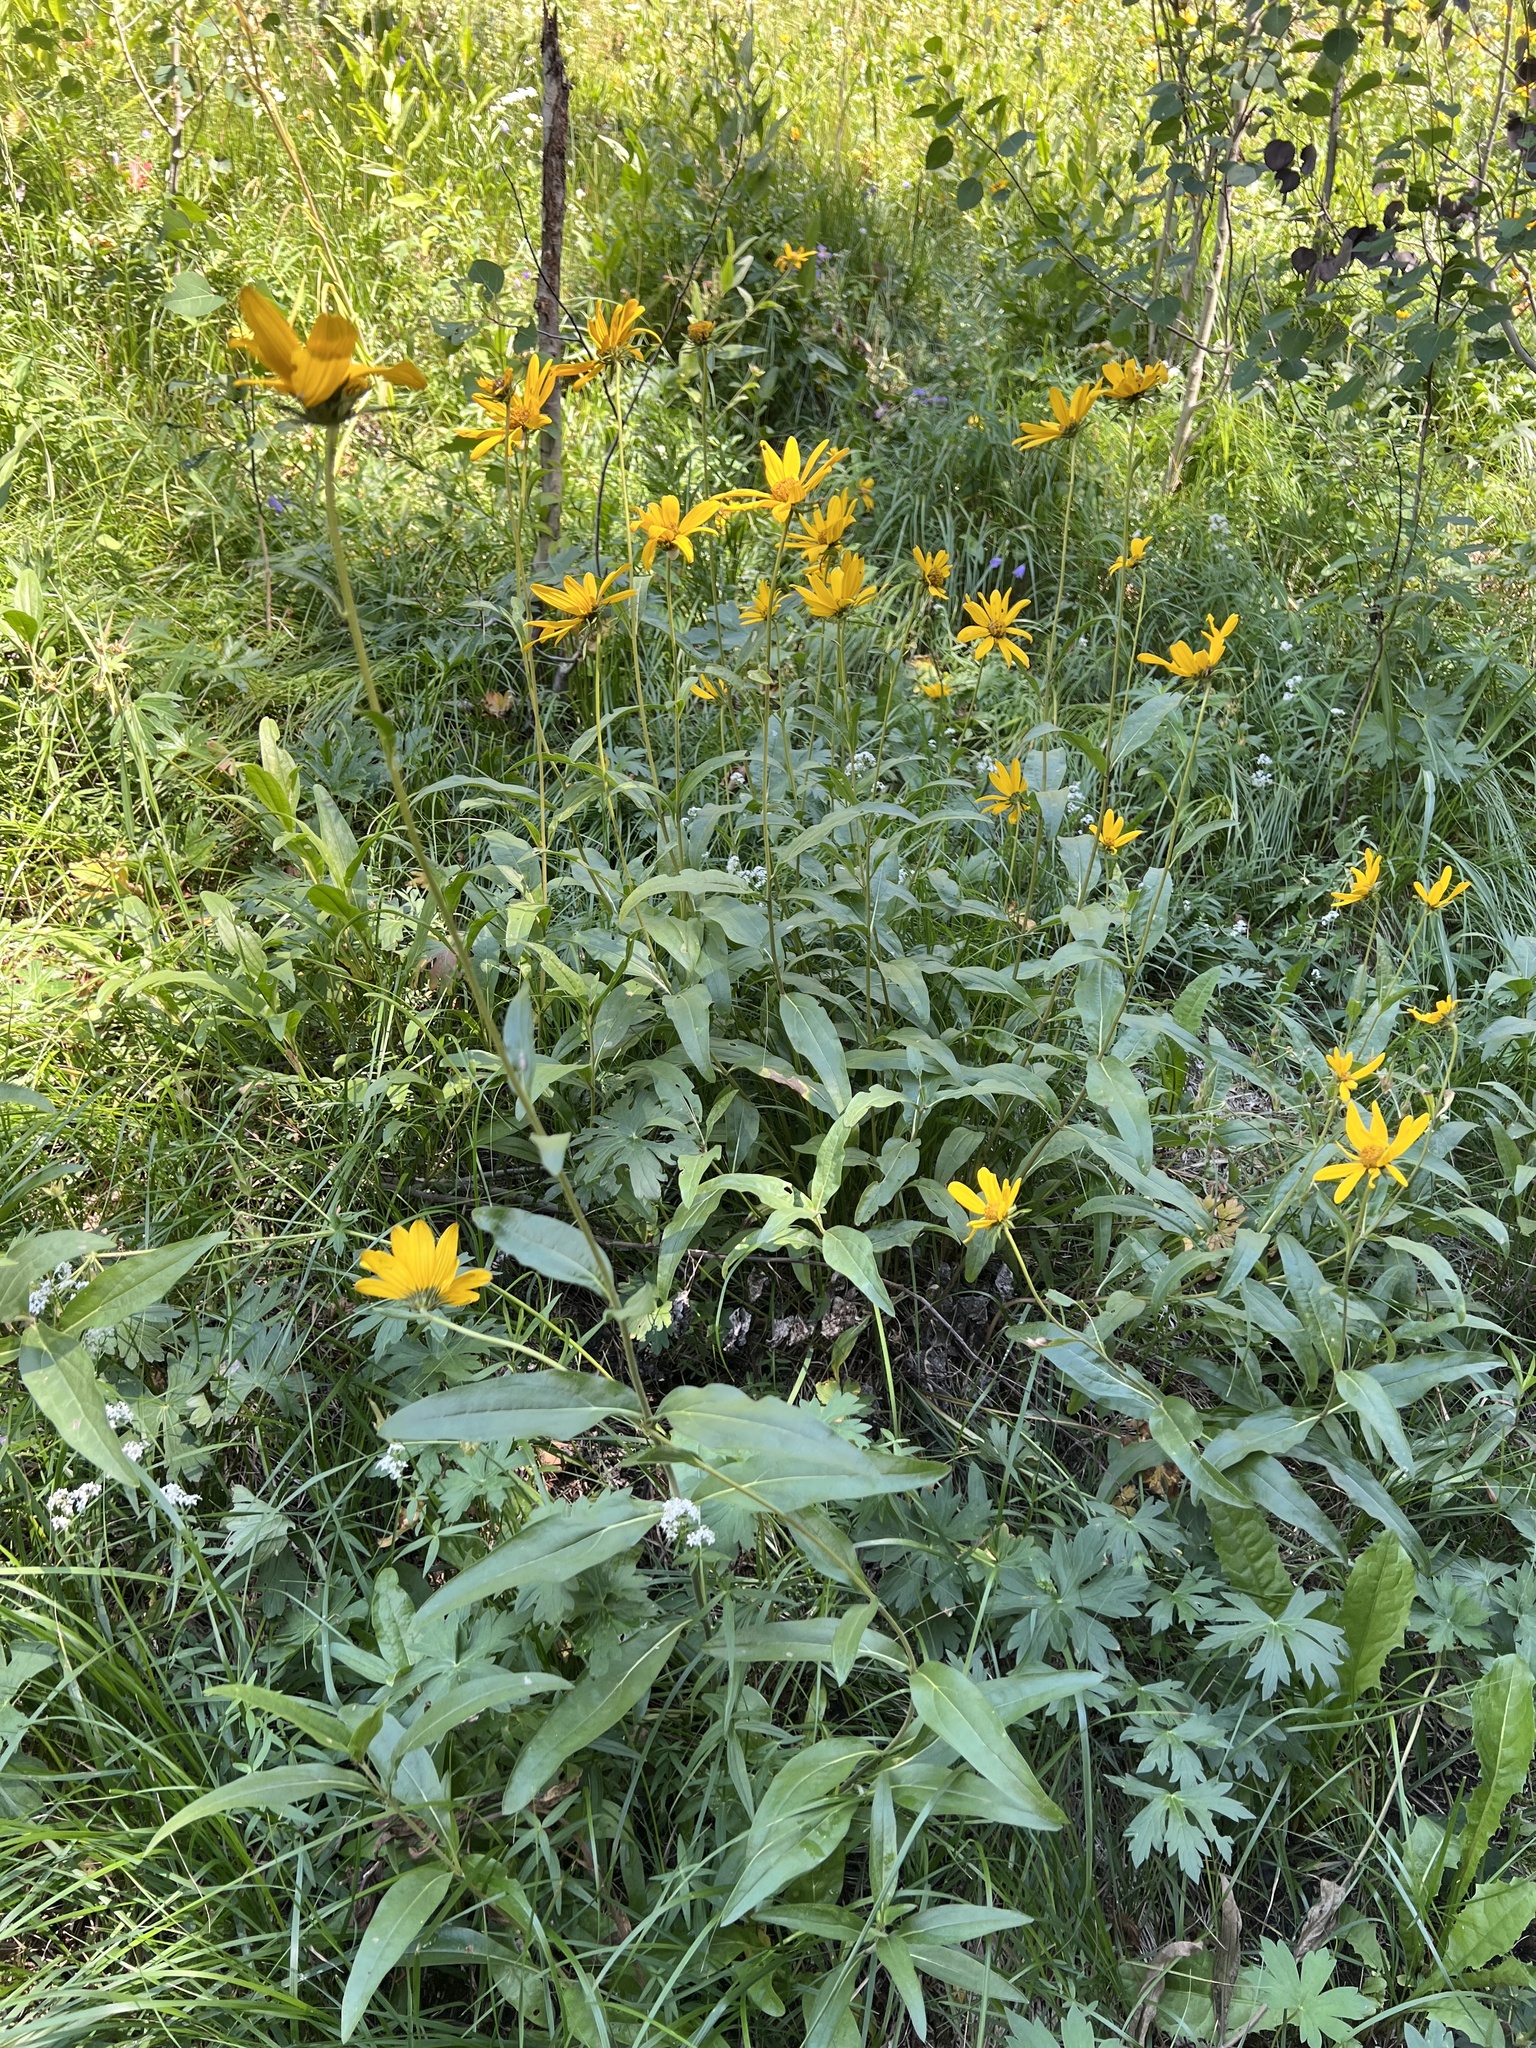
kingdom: Plantae
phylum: Tracheophyta
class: Magnoliopsida
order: Asterales
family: Asteraceae
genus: Helianthella
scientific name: Helianthella uniflora
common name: Rocky mountain dwarf sunflower
